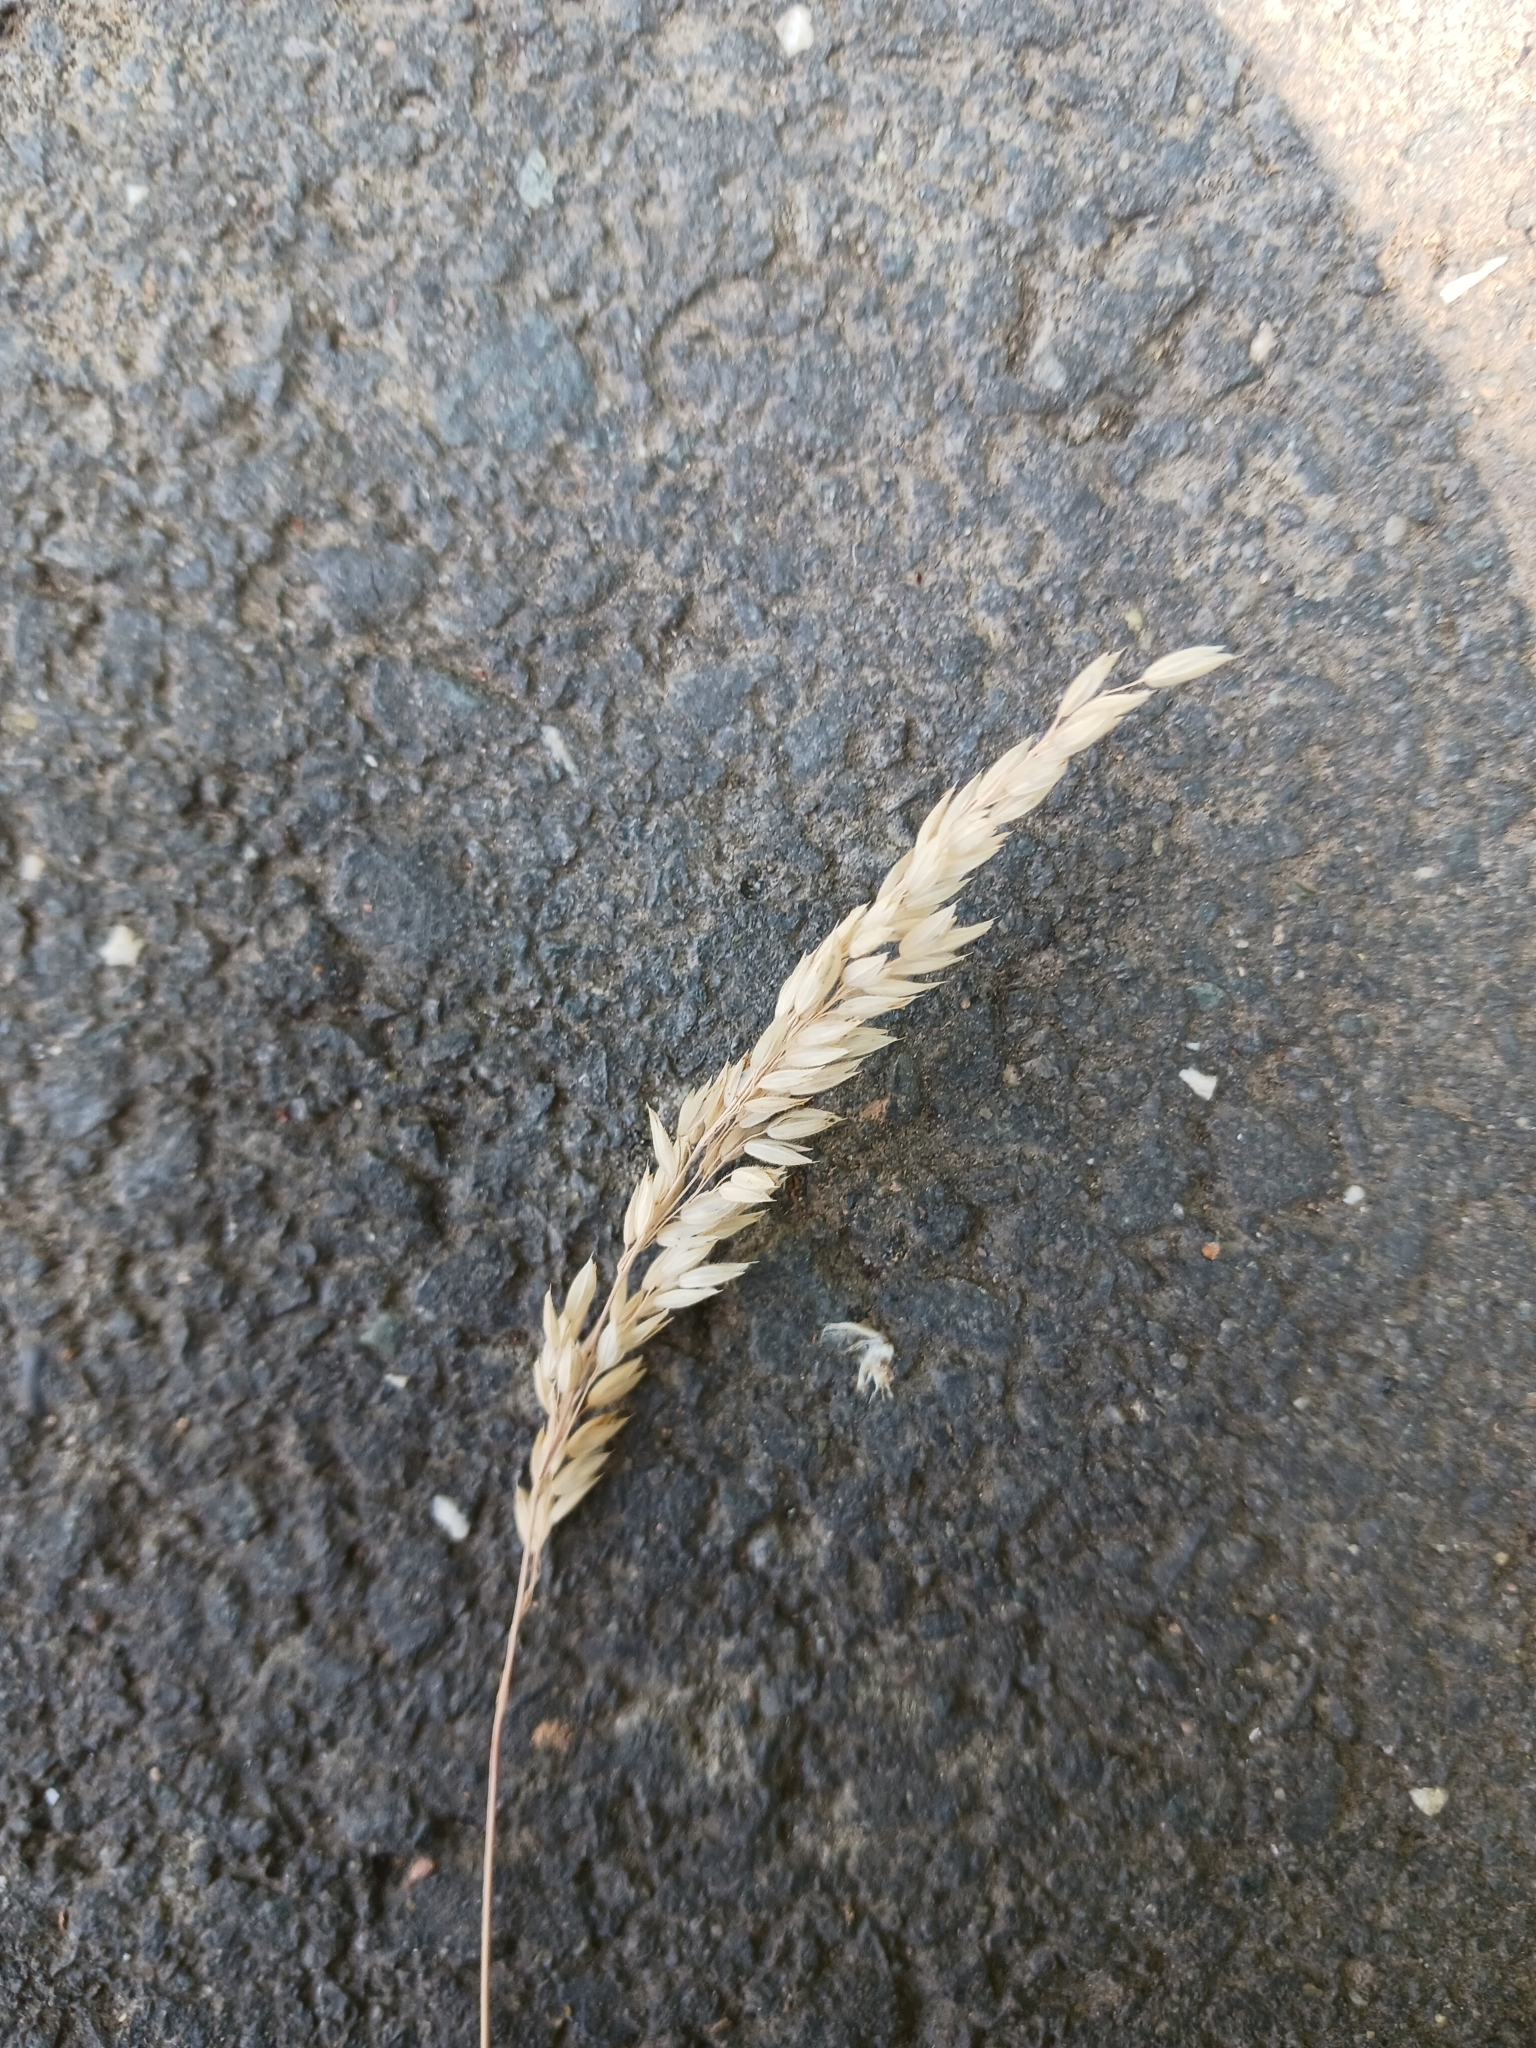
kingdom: Plantae
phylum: Tracheophyta
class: Liliopsida
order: Poales
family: Poaceae
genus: Holcus
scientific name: Holcus lanatus
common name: Yorkshire-fog
